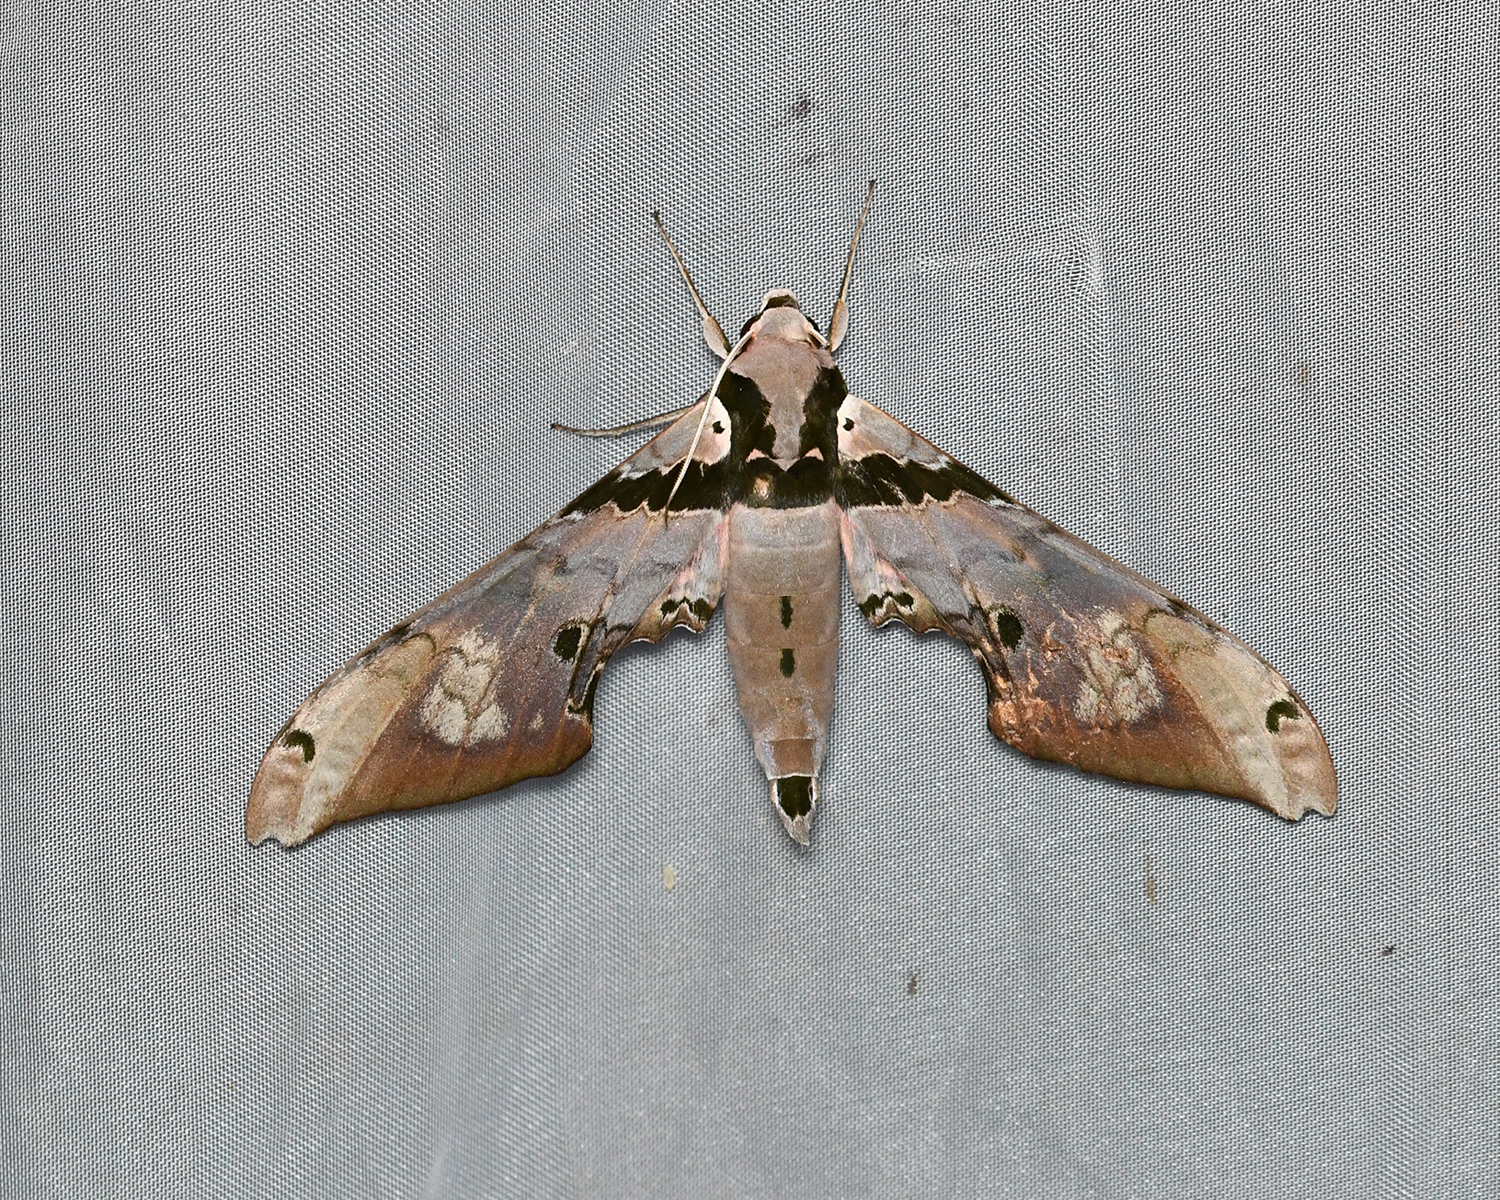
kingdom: Animalia
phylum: Arthropoda
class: Insecta
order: Lepidoptera
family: Sphingidae
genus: Adhemarius
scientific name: Adhemarius gannascus
